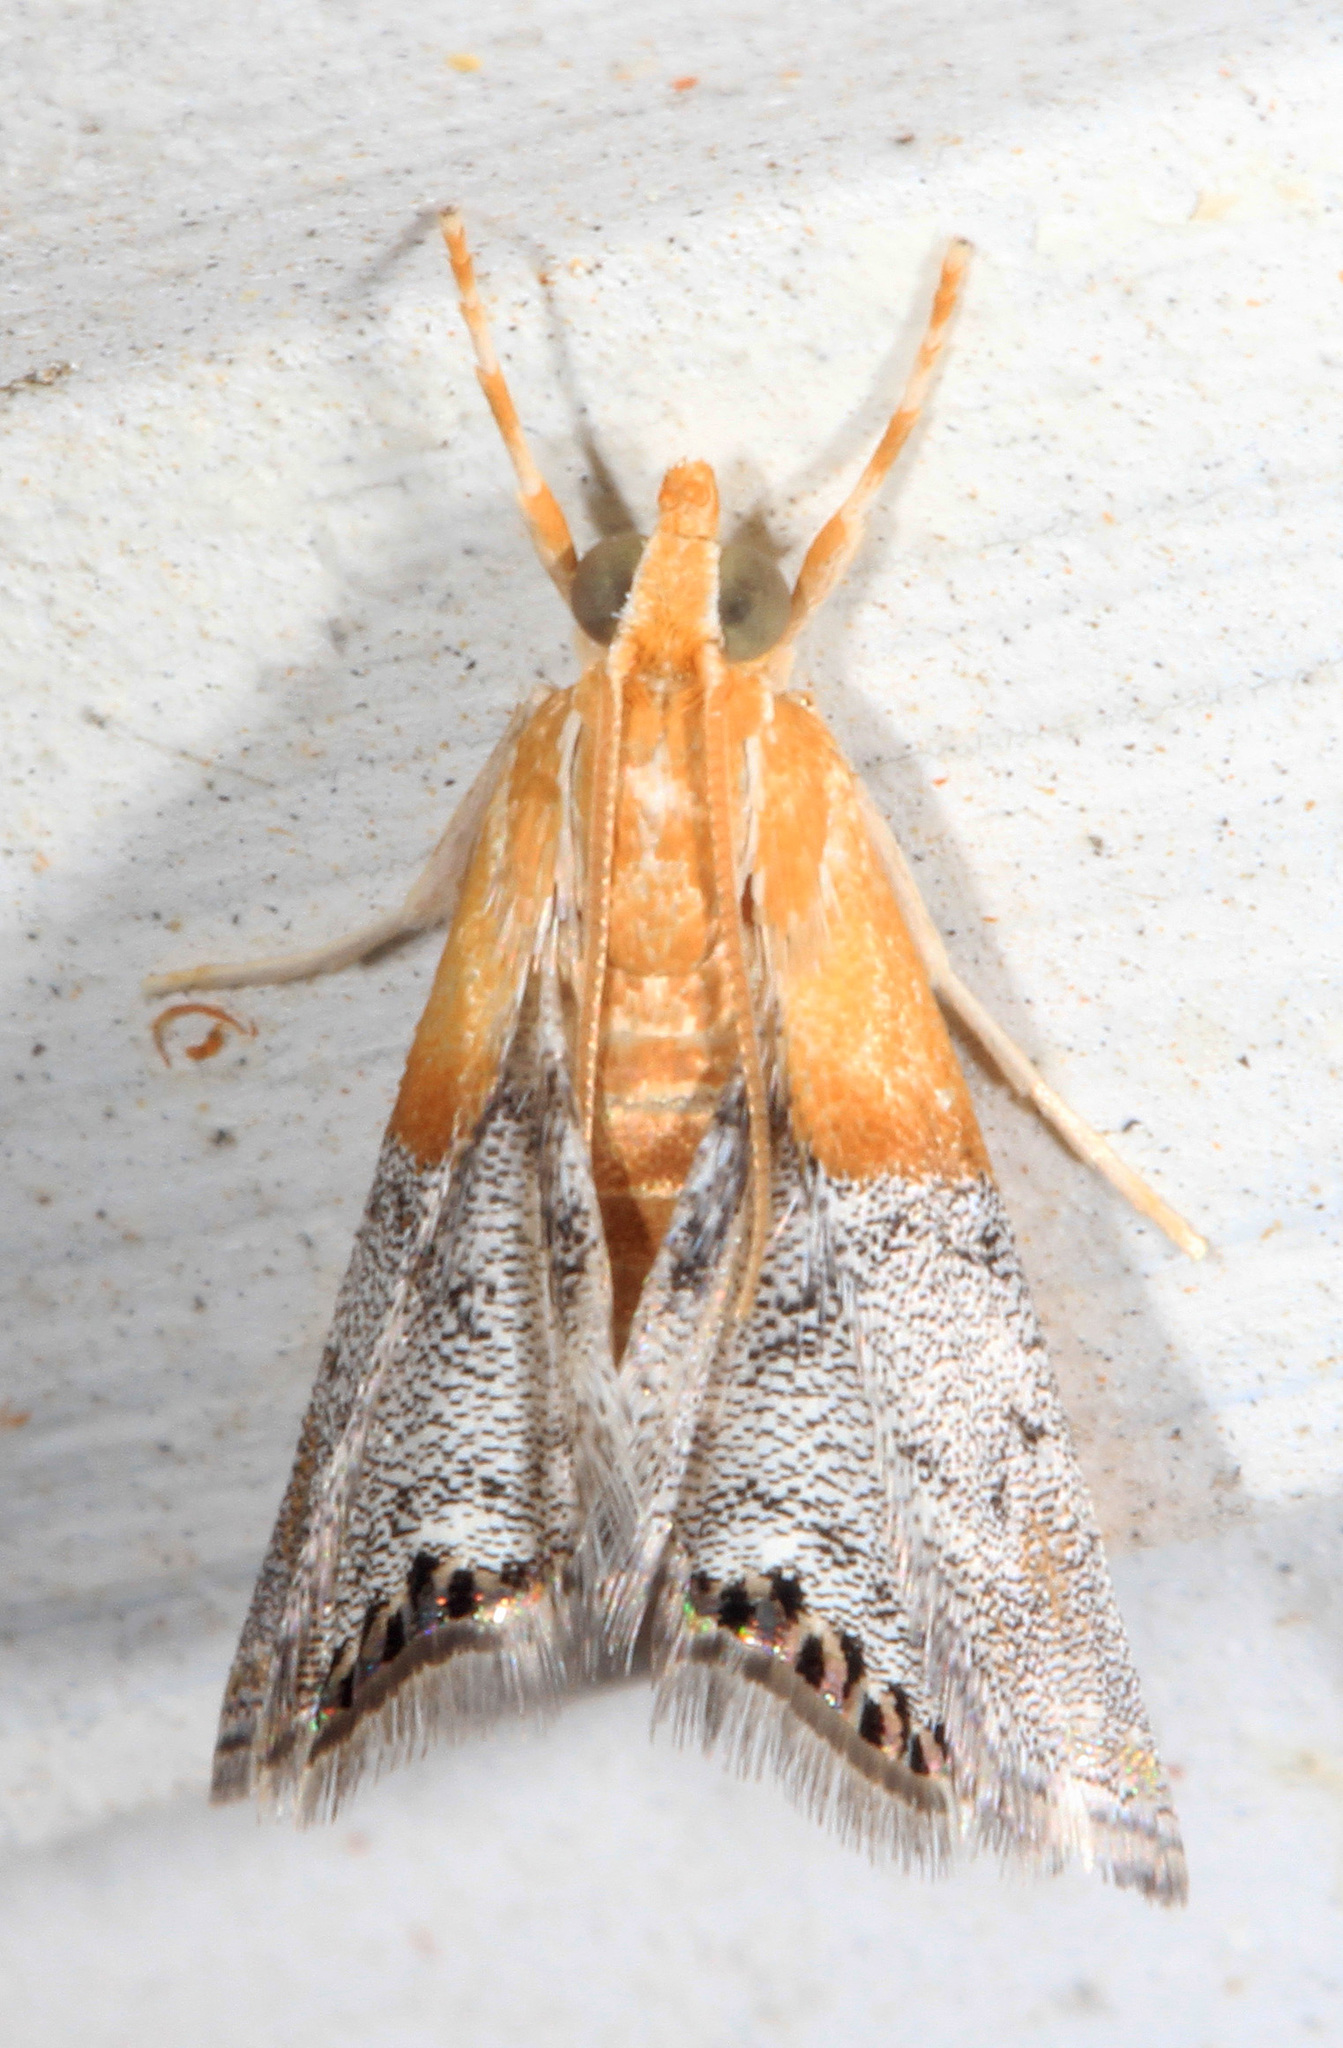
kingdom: Animalia
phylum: Arthropoda
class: Insecta
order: Lepidoptera
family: Crambidae
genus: Chalcoela
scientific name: Chalcoela iphitalis
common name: Sooty-winged chalcoela moth
